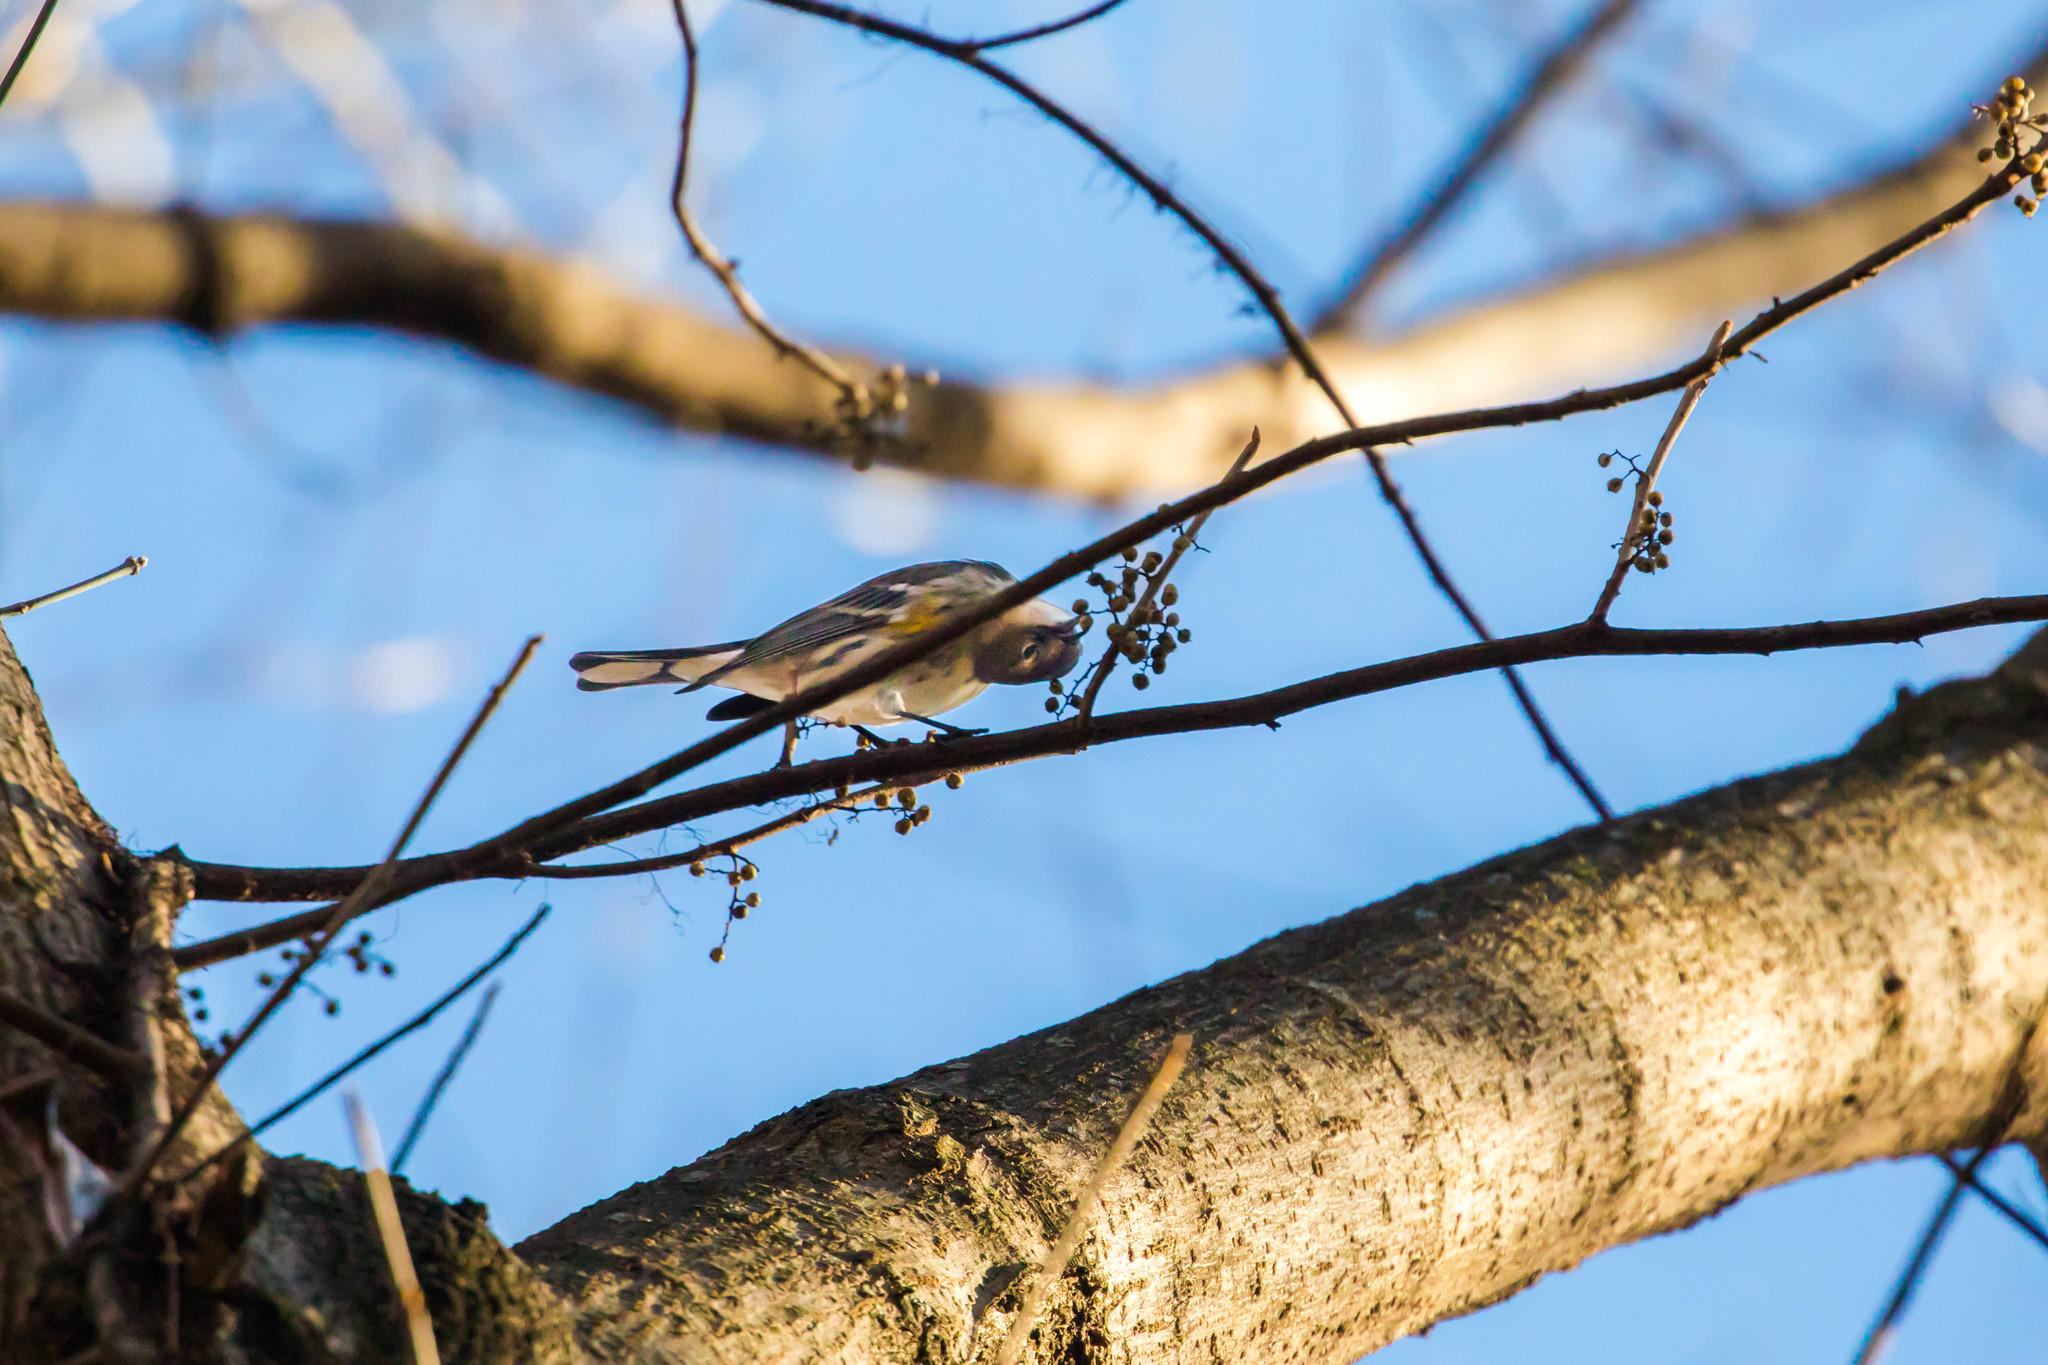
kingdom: Animalia
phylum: Chordata
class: Aves
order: Passeriformes
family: Parulidae
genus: Setophaga
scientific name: Setophaga coronata
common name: Myrtle warbler
